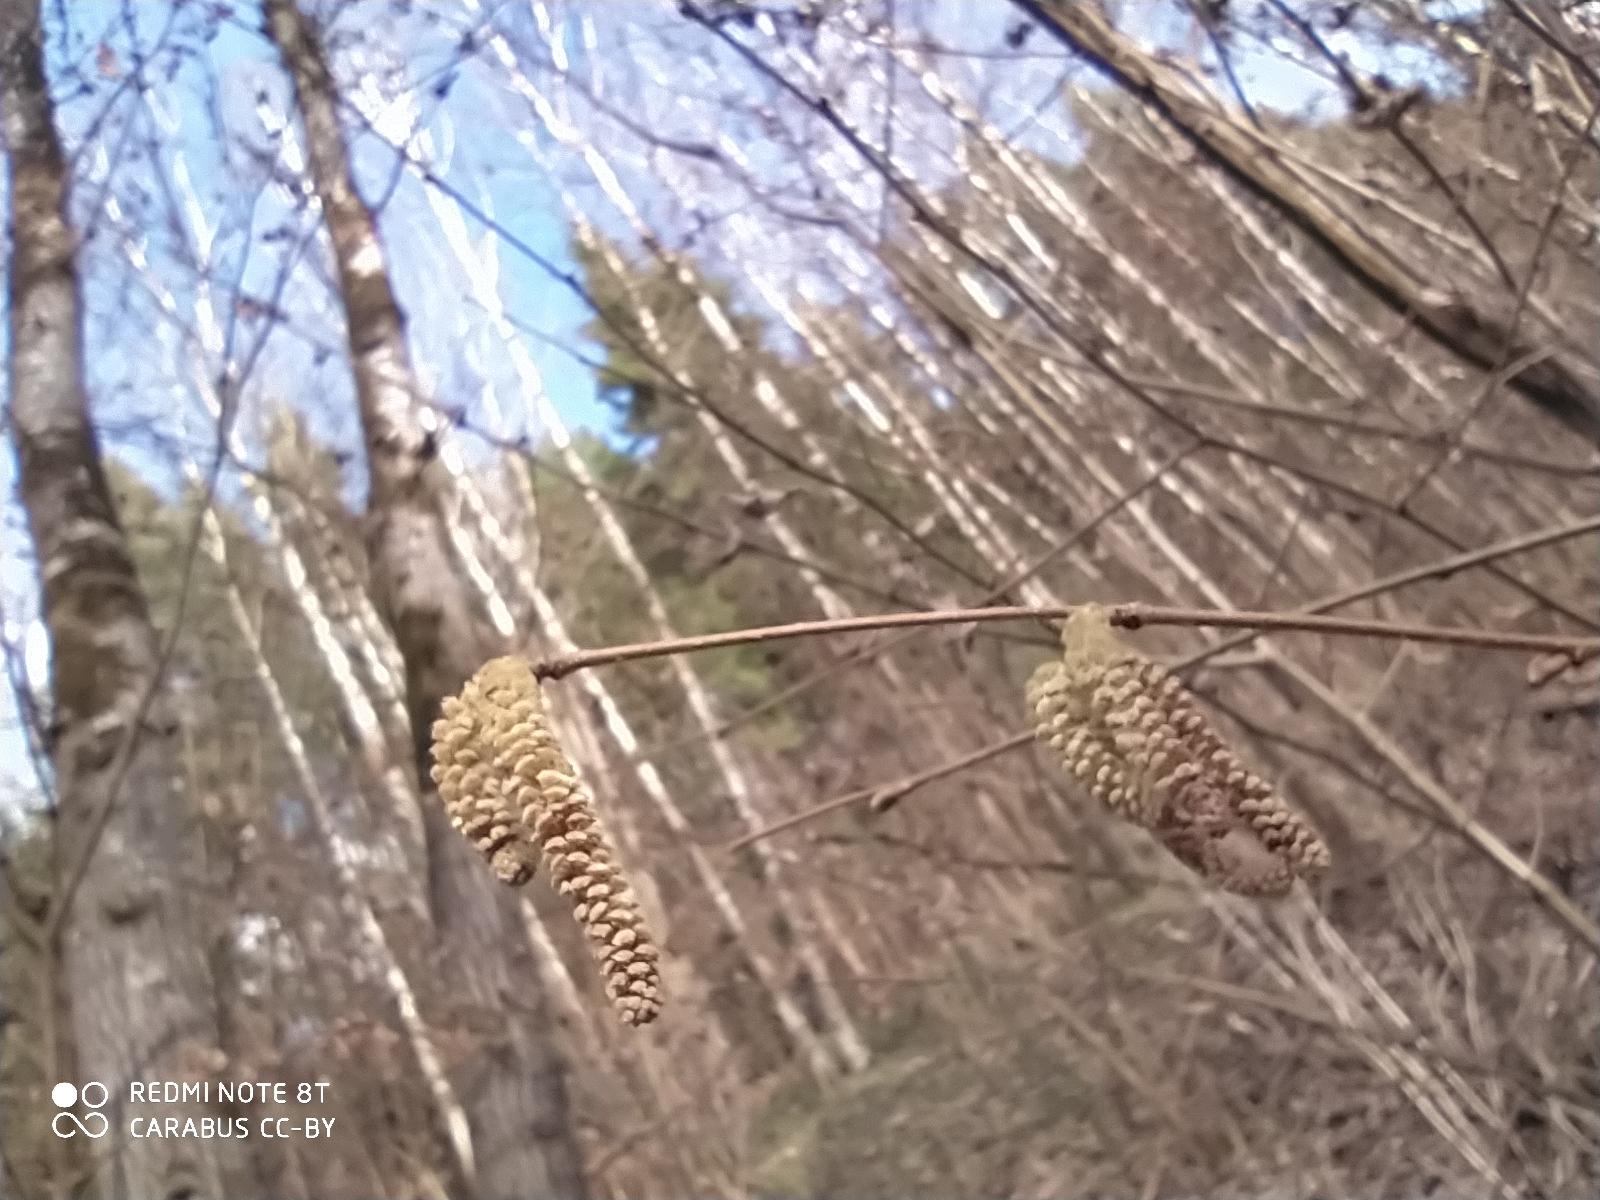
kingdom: Plantae
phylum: Tracheophyta
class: Magnoliopsida
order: Fagales
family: Betulaceae
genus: Corylus
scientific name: Corylus avellana
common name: European hazel
